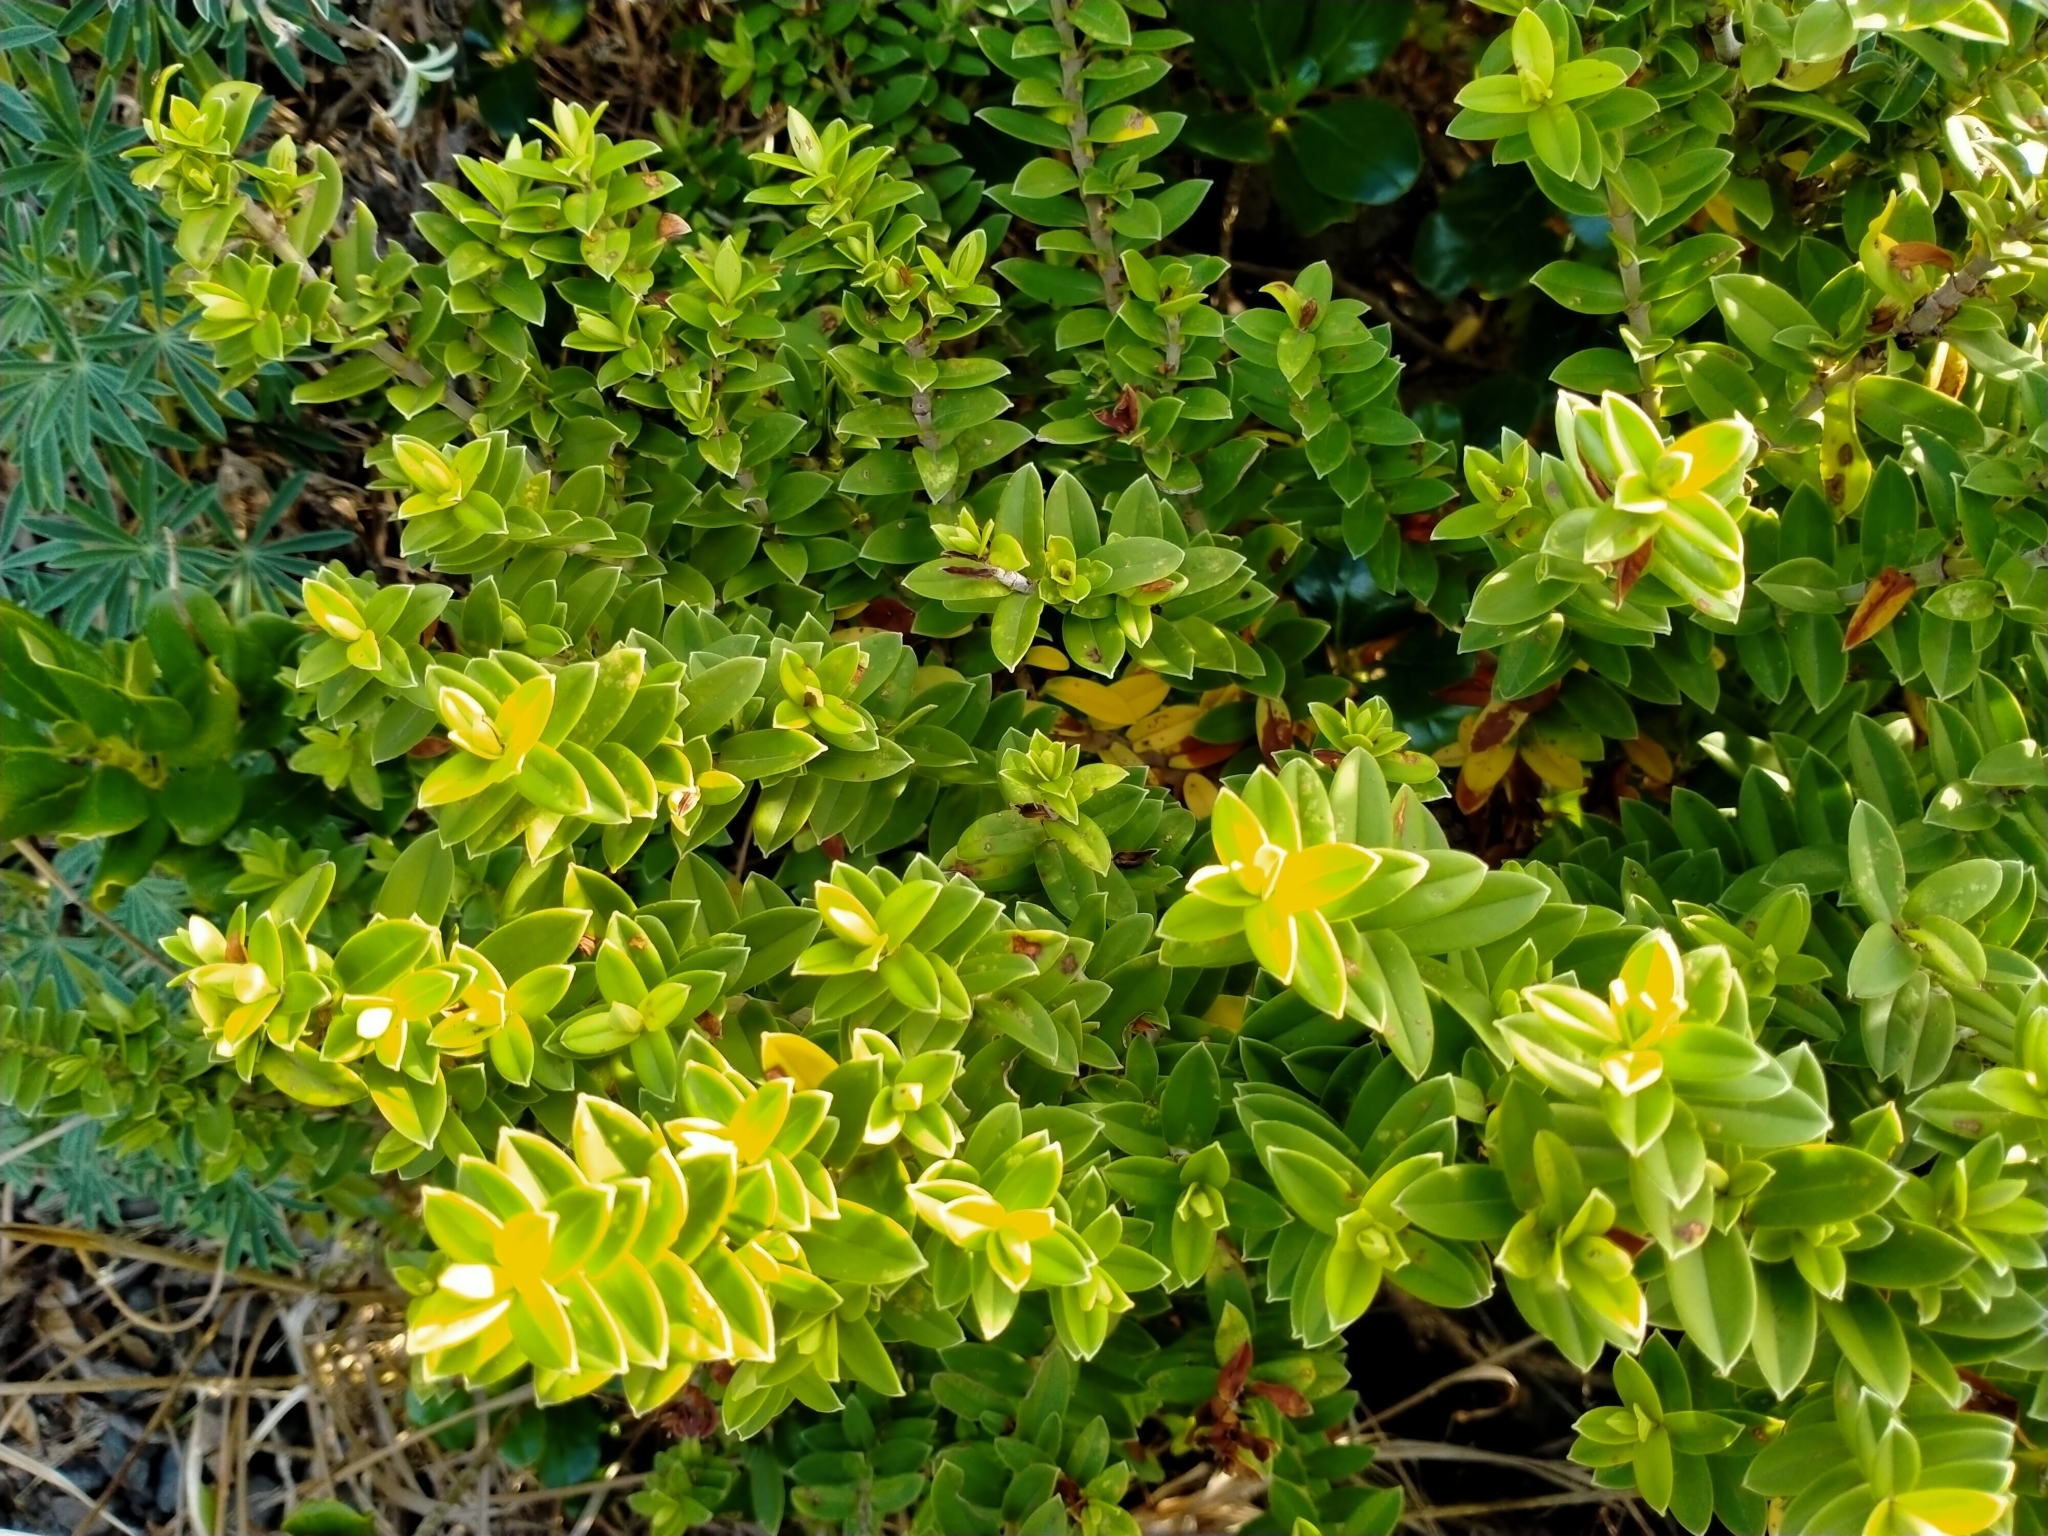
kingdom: Plantae
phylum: Tracheophyta
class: Magnoliopsida
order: Lamiales
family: Plantaginaceae
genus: Veronica
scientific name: Veronica elliptica
